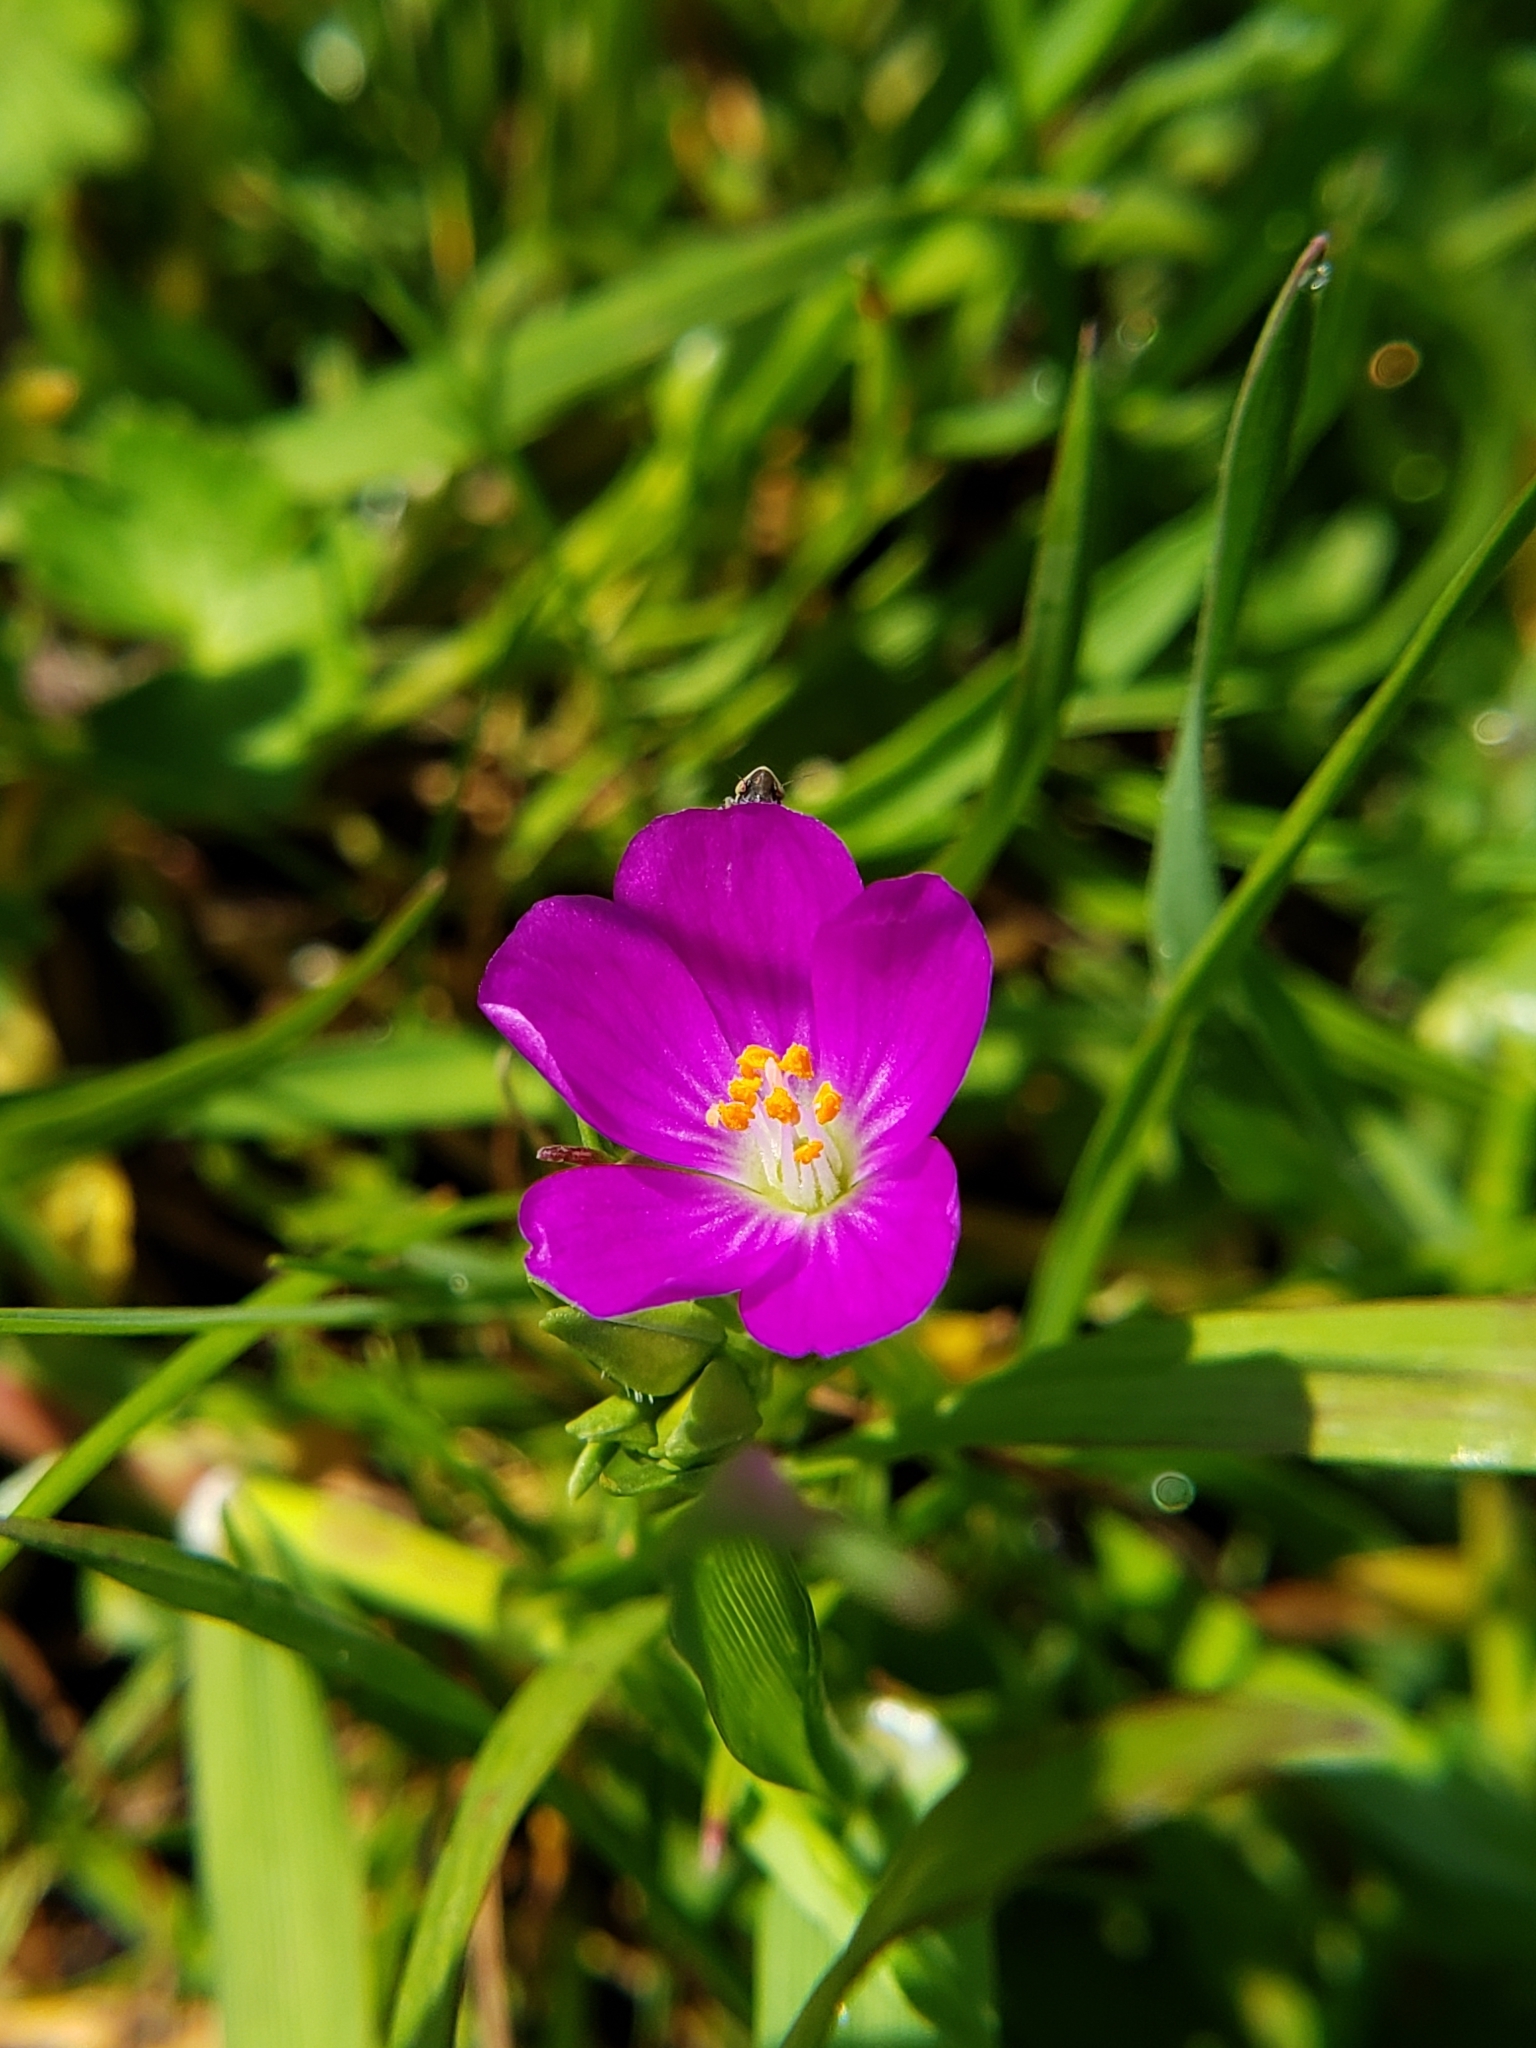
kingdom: Plantae
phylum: Tracheophyta
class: Magnoliopsida
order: Caryophyllales
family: Montiaceae
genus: Calandrinia
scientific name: Calandrinia menziesii
